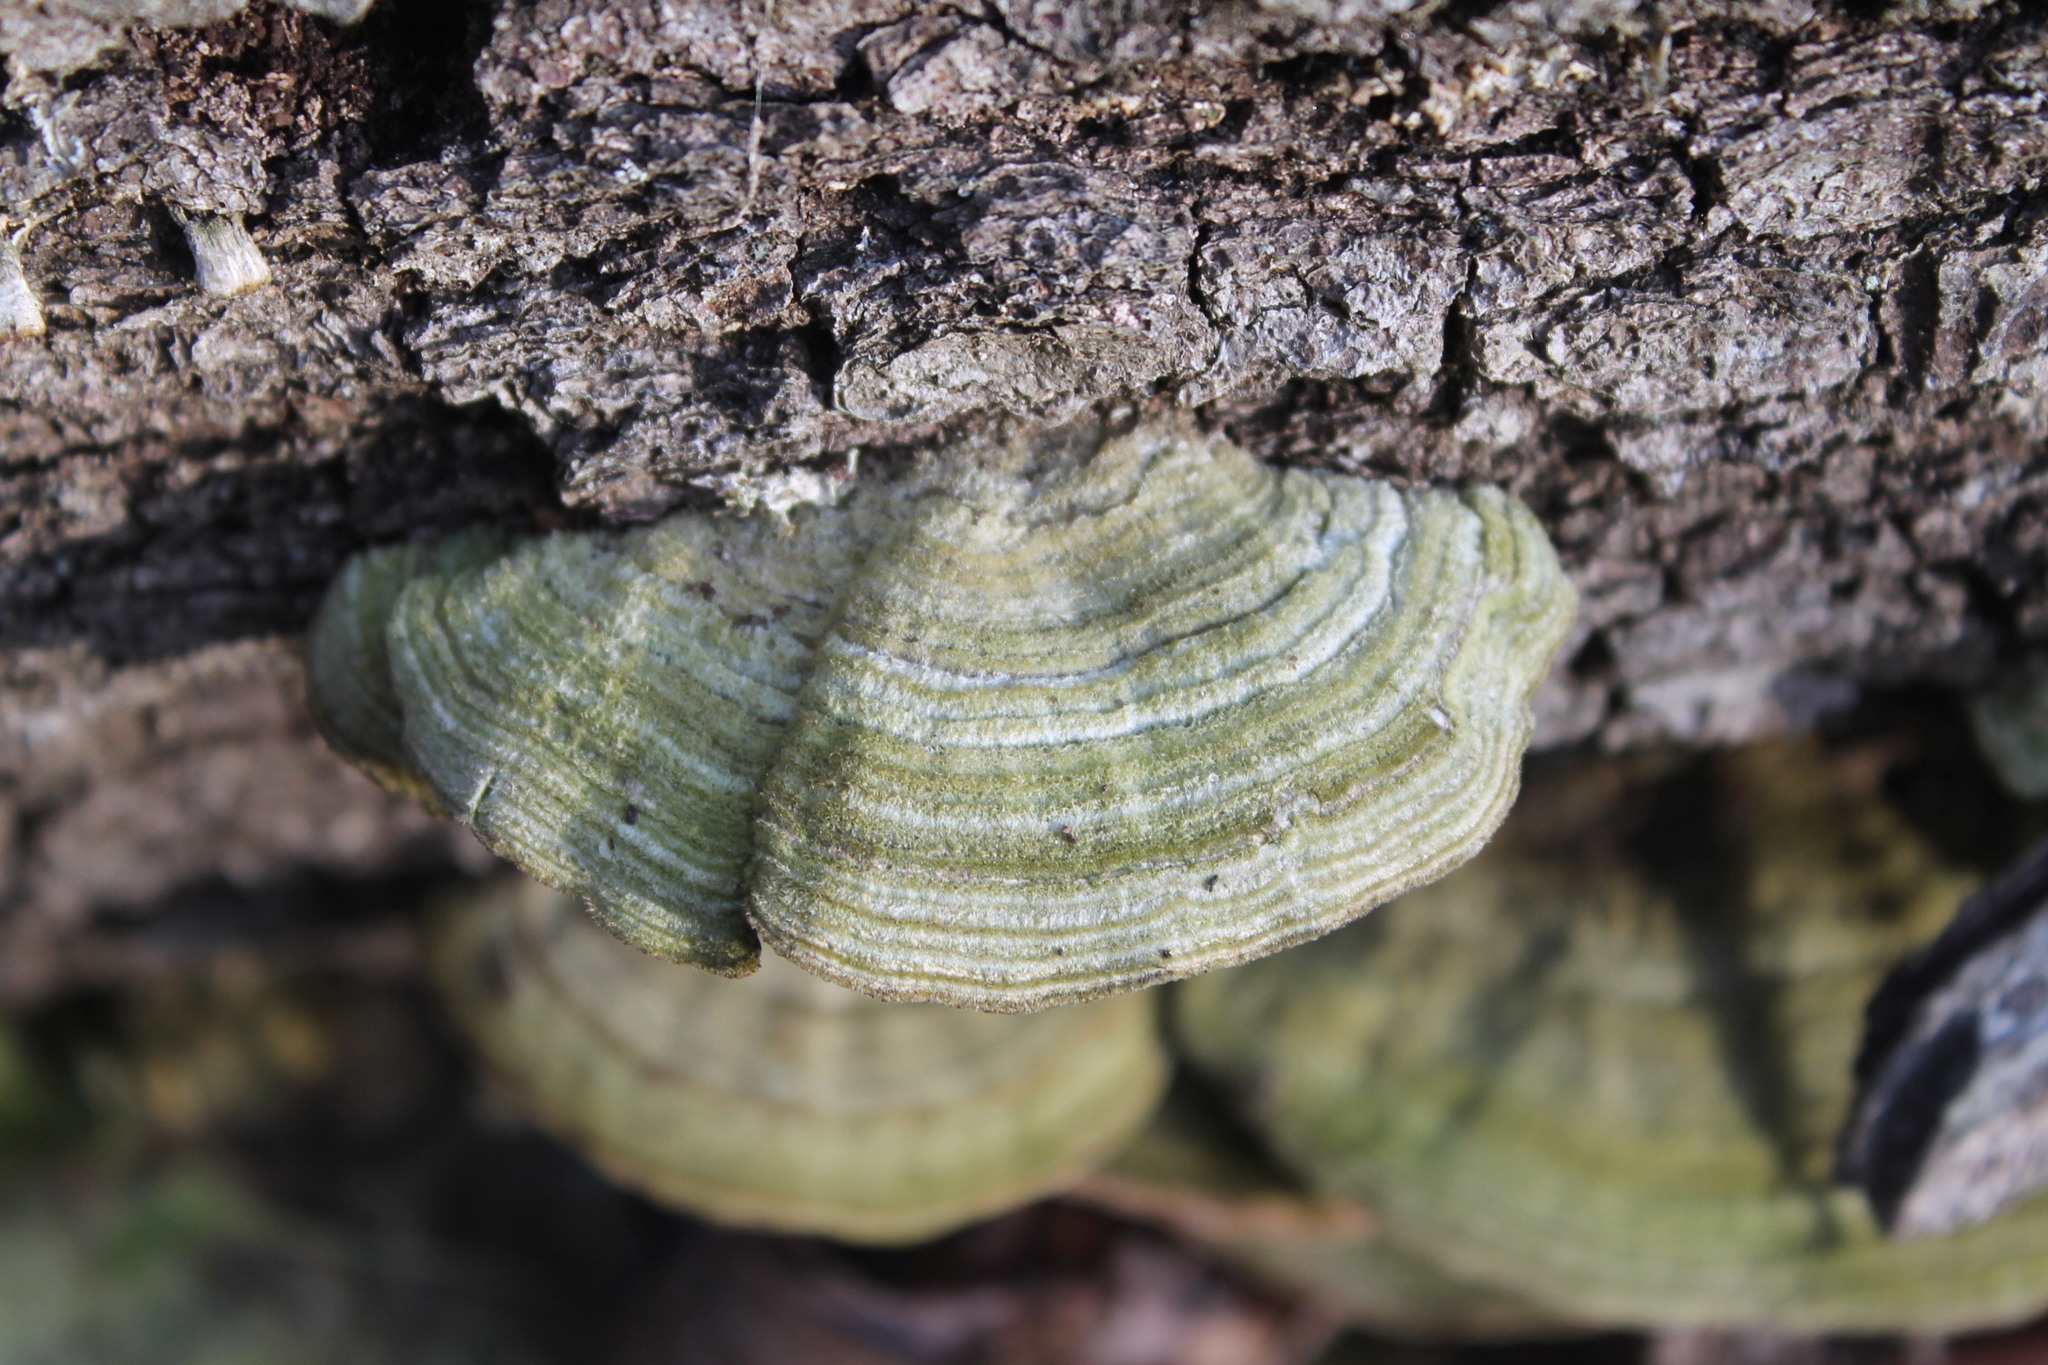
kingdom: Fungi
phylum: Basidiomycota
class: Agaricomycetes
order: Polyporales
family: Polyporaceae
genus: Lenzites
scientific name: Lenzites betulinus
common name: Birch mazegill
